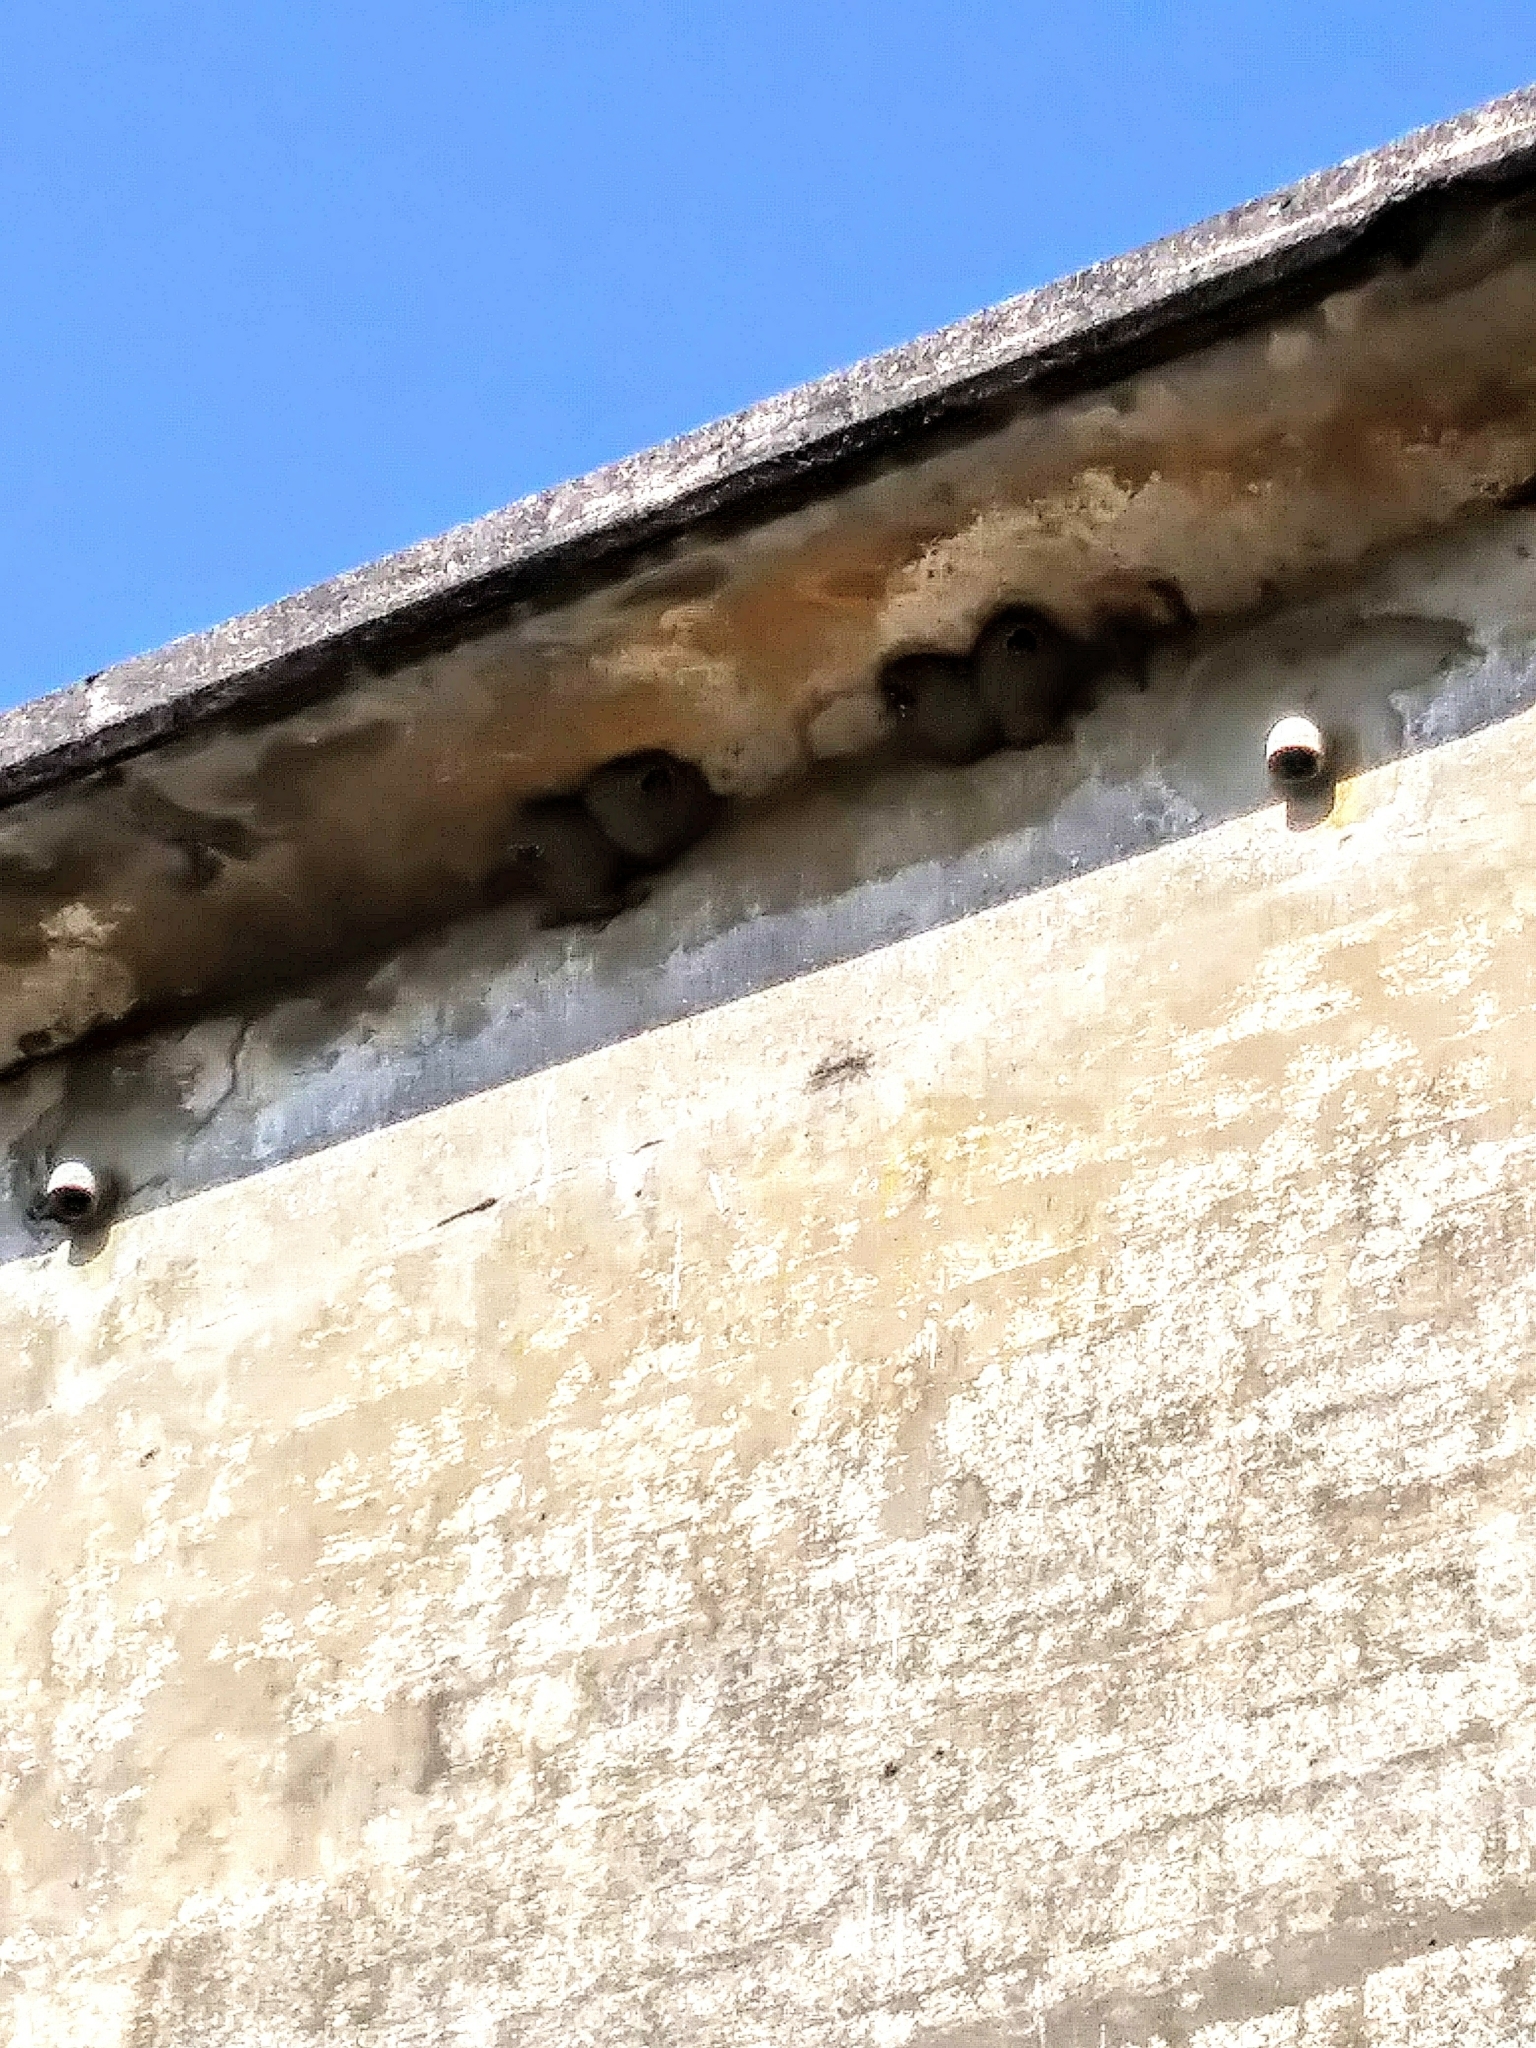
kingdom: Animalia
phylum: Chordata
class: Aves
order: Passeriformes
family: Hirundinidae
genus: Petrochelidon
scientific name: Petrochelidon pyrrhonota
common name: American cliff swallow
